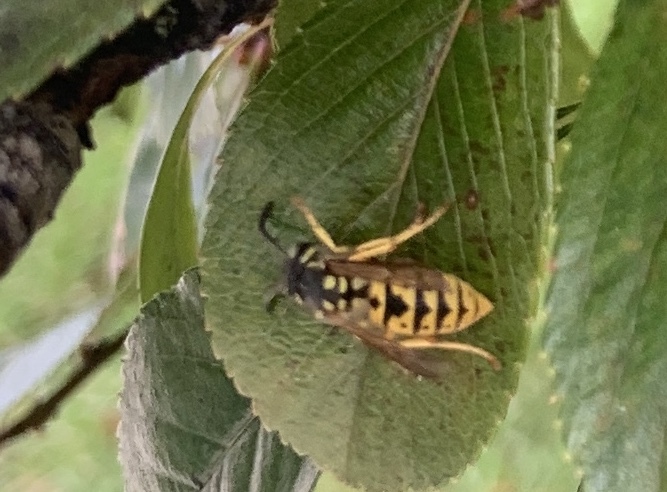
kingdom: Animalia
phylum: Arthropoda
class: Insecta
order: Hymenoptera
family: Vespidae
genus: Vespula
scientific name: Vespula germanica
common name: German wasp
